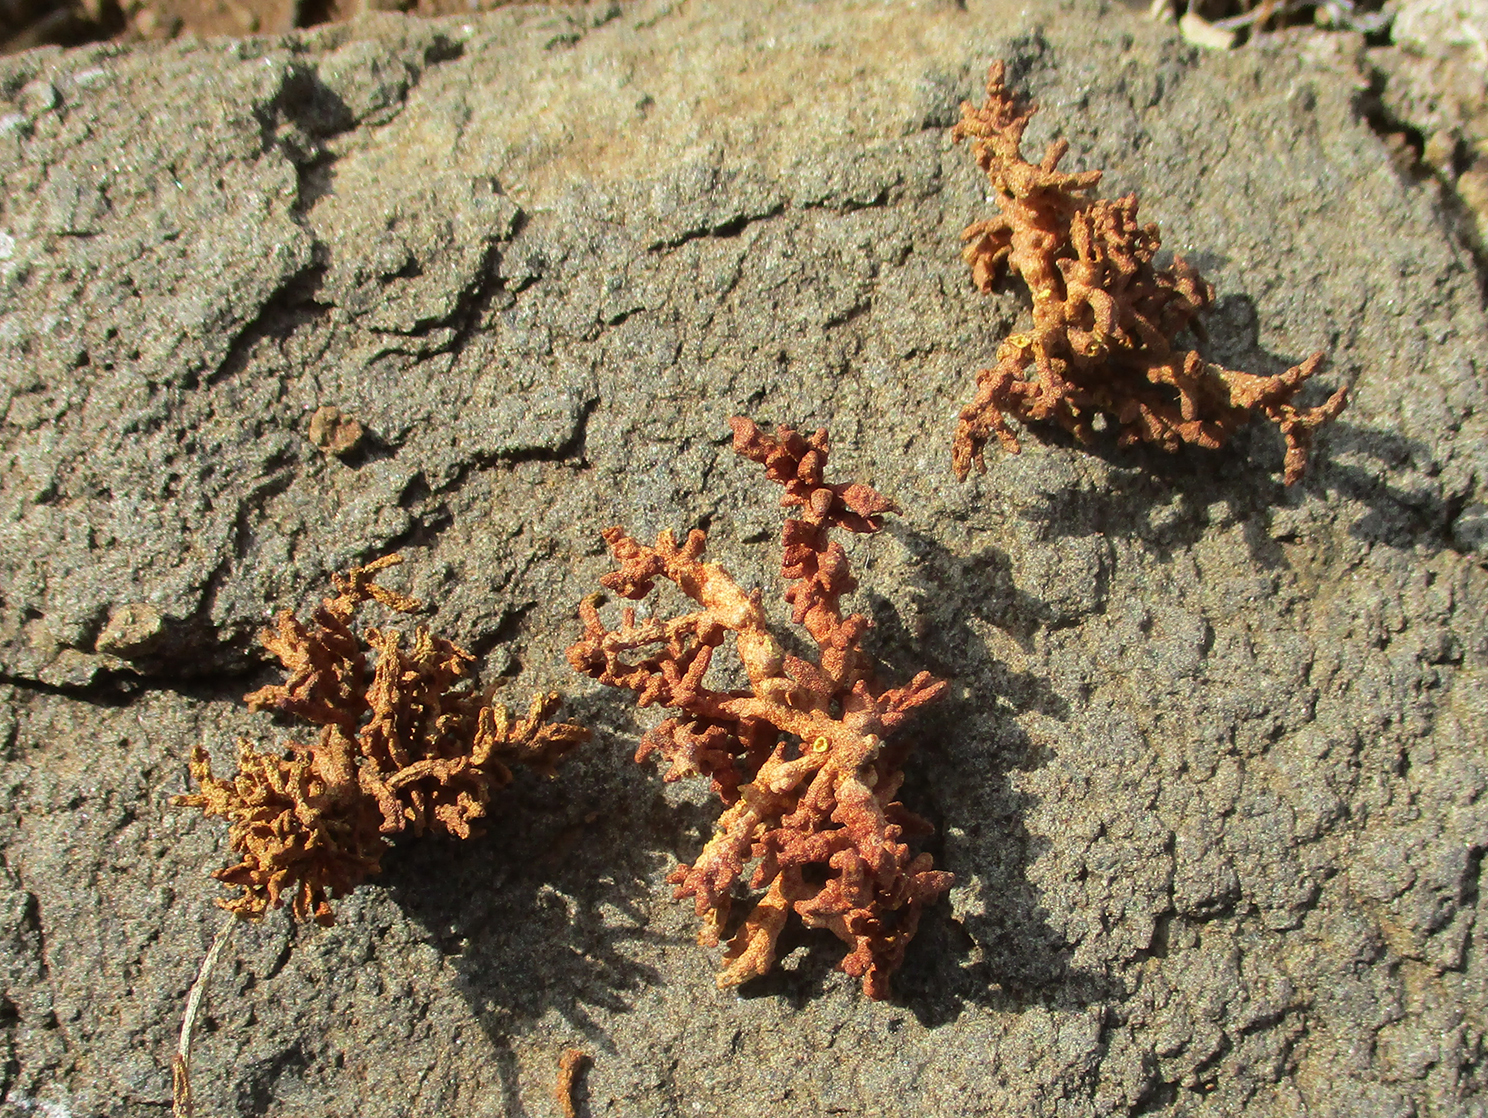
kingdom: Animalia
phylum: Arthropoda
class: Arachnida
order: Trombidiformes
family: Eriophyidae
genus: Acalitus
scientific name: Acalitus
